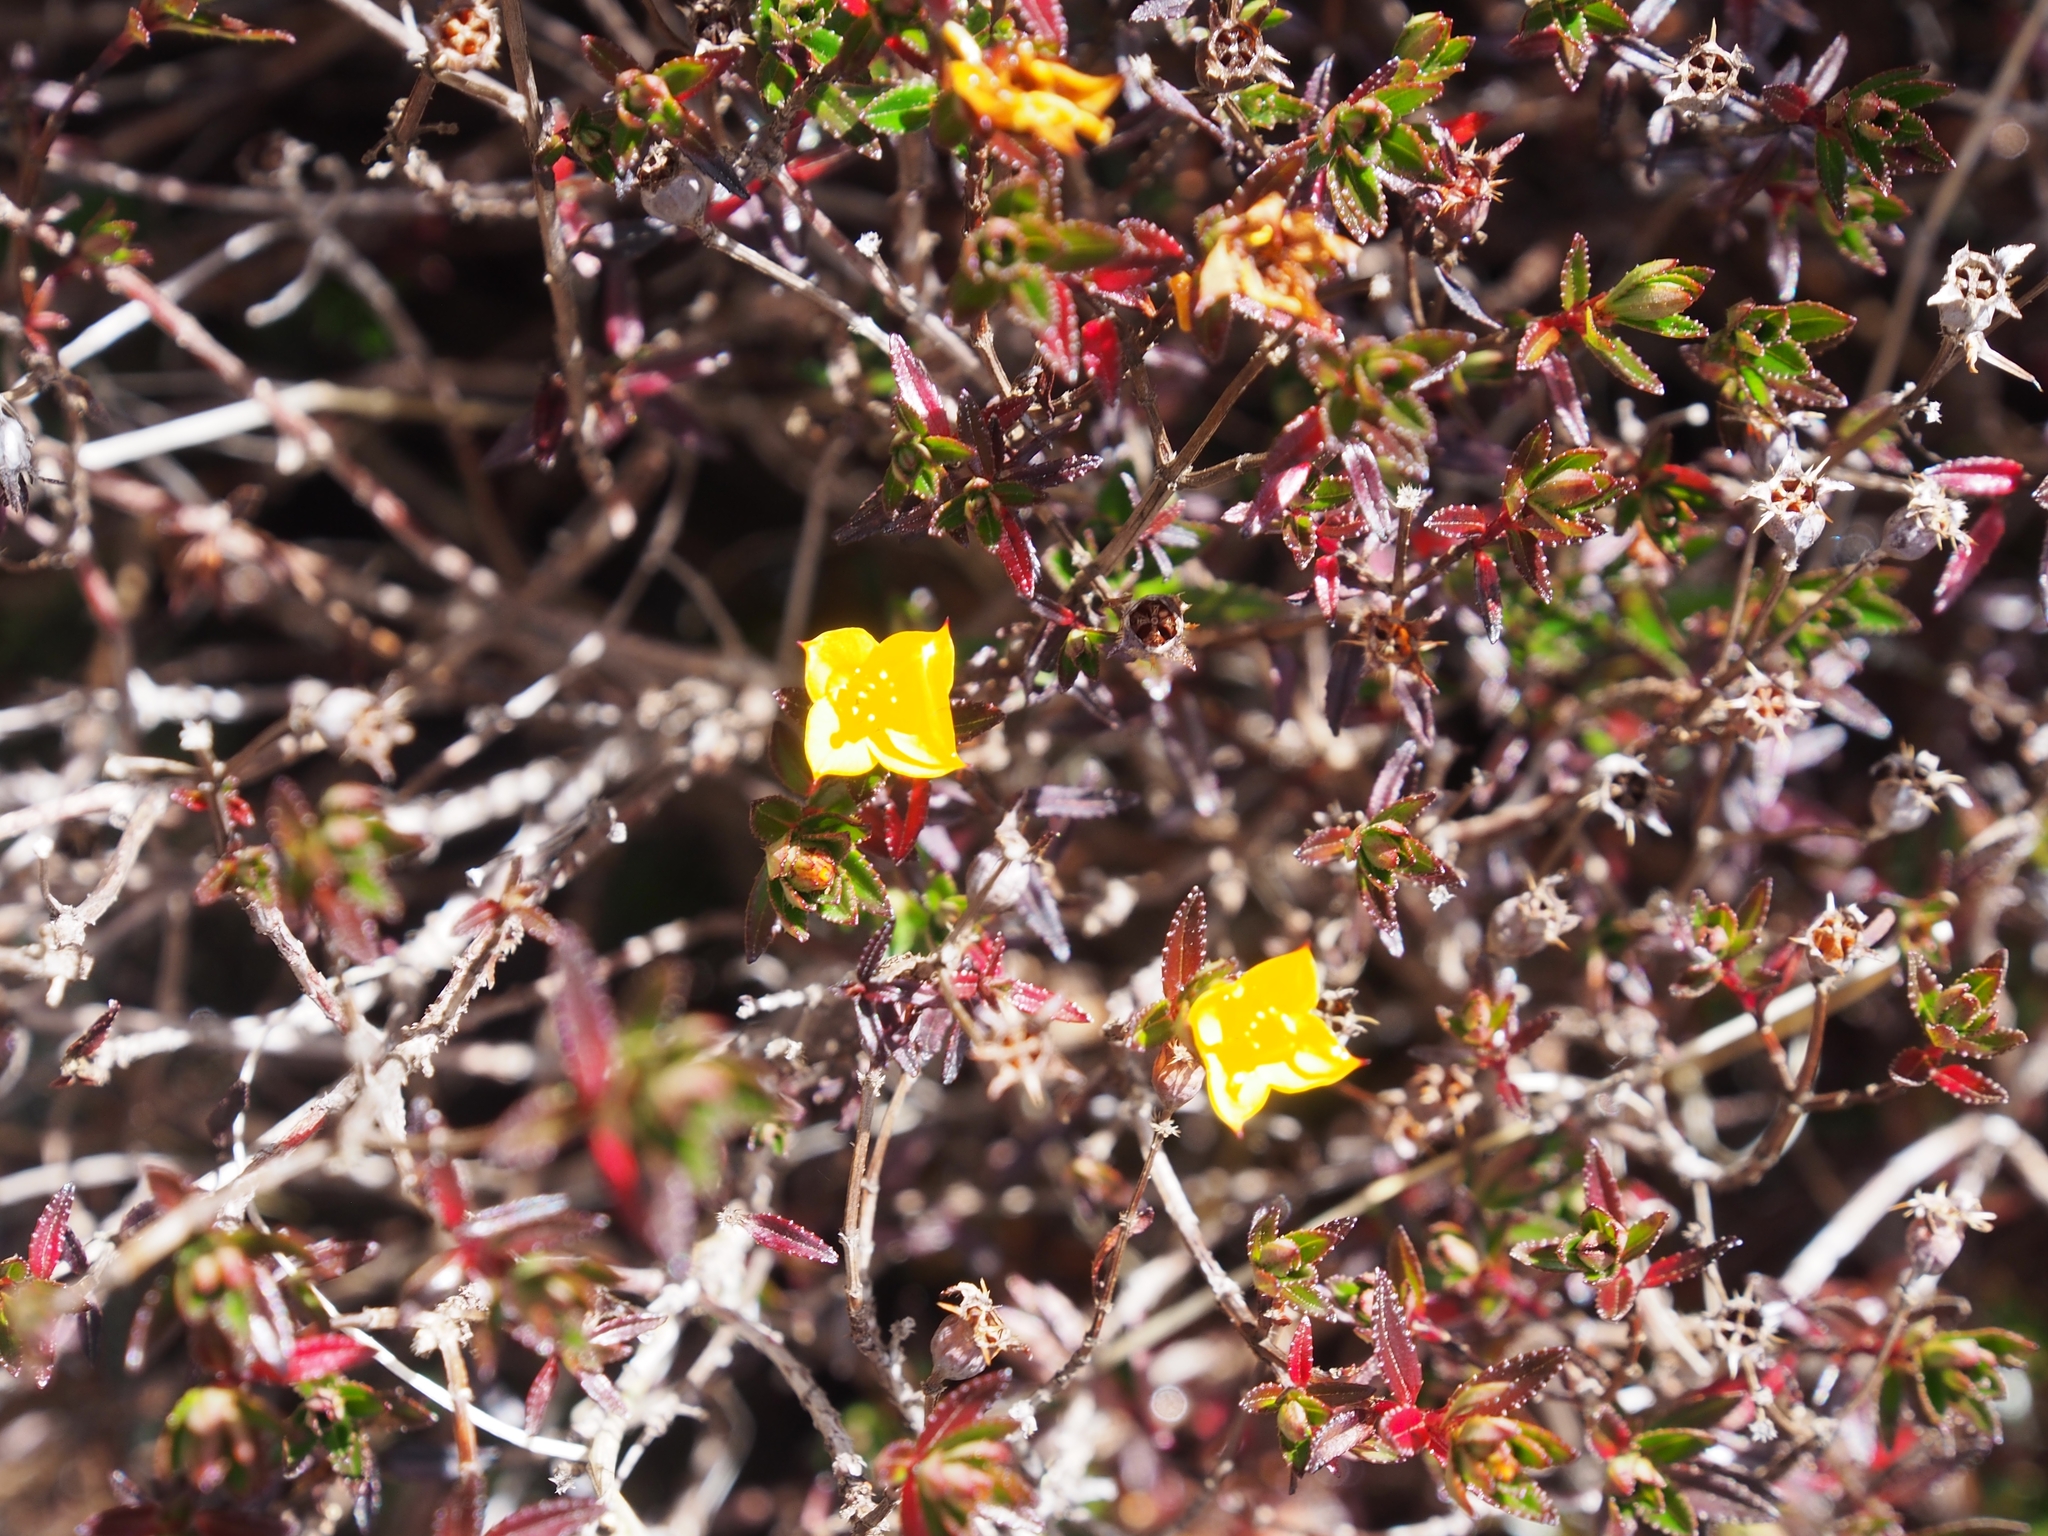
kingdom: Plantae
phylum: Tracheophyta
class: Magnoliopsida
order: Myrtales
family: Melastomataceae
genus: Chaetolepis
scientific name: Chaetolepis cufodontisii
